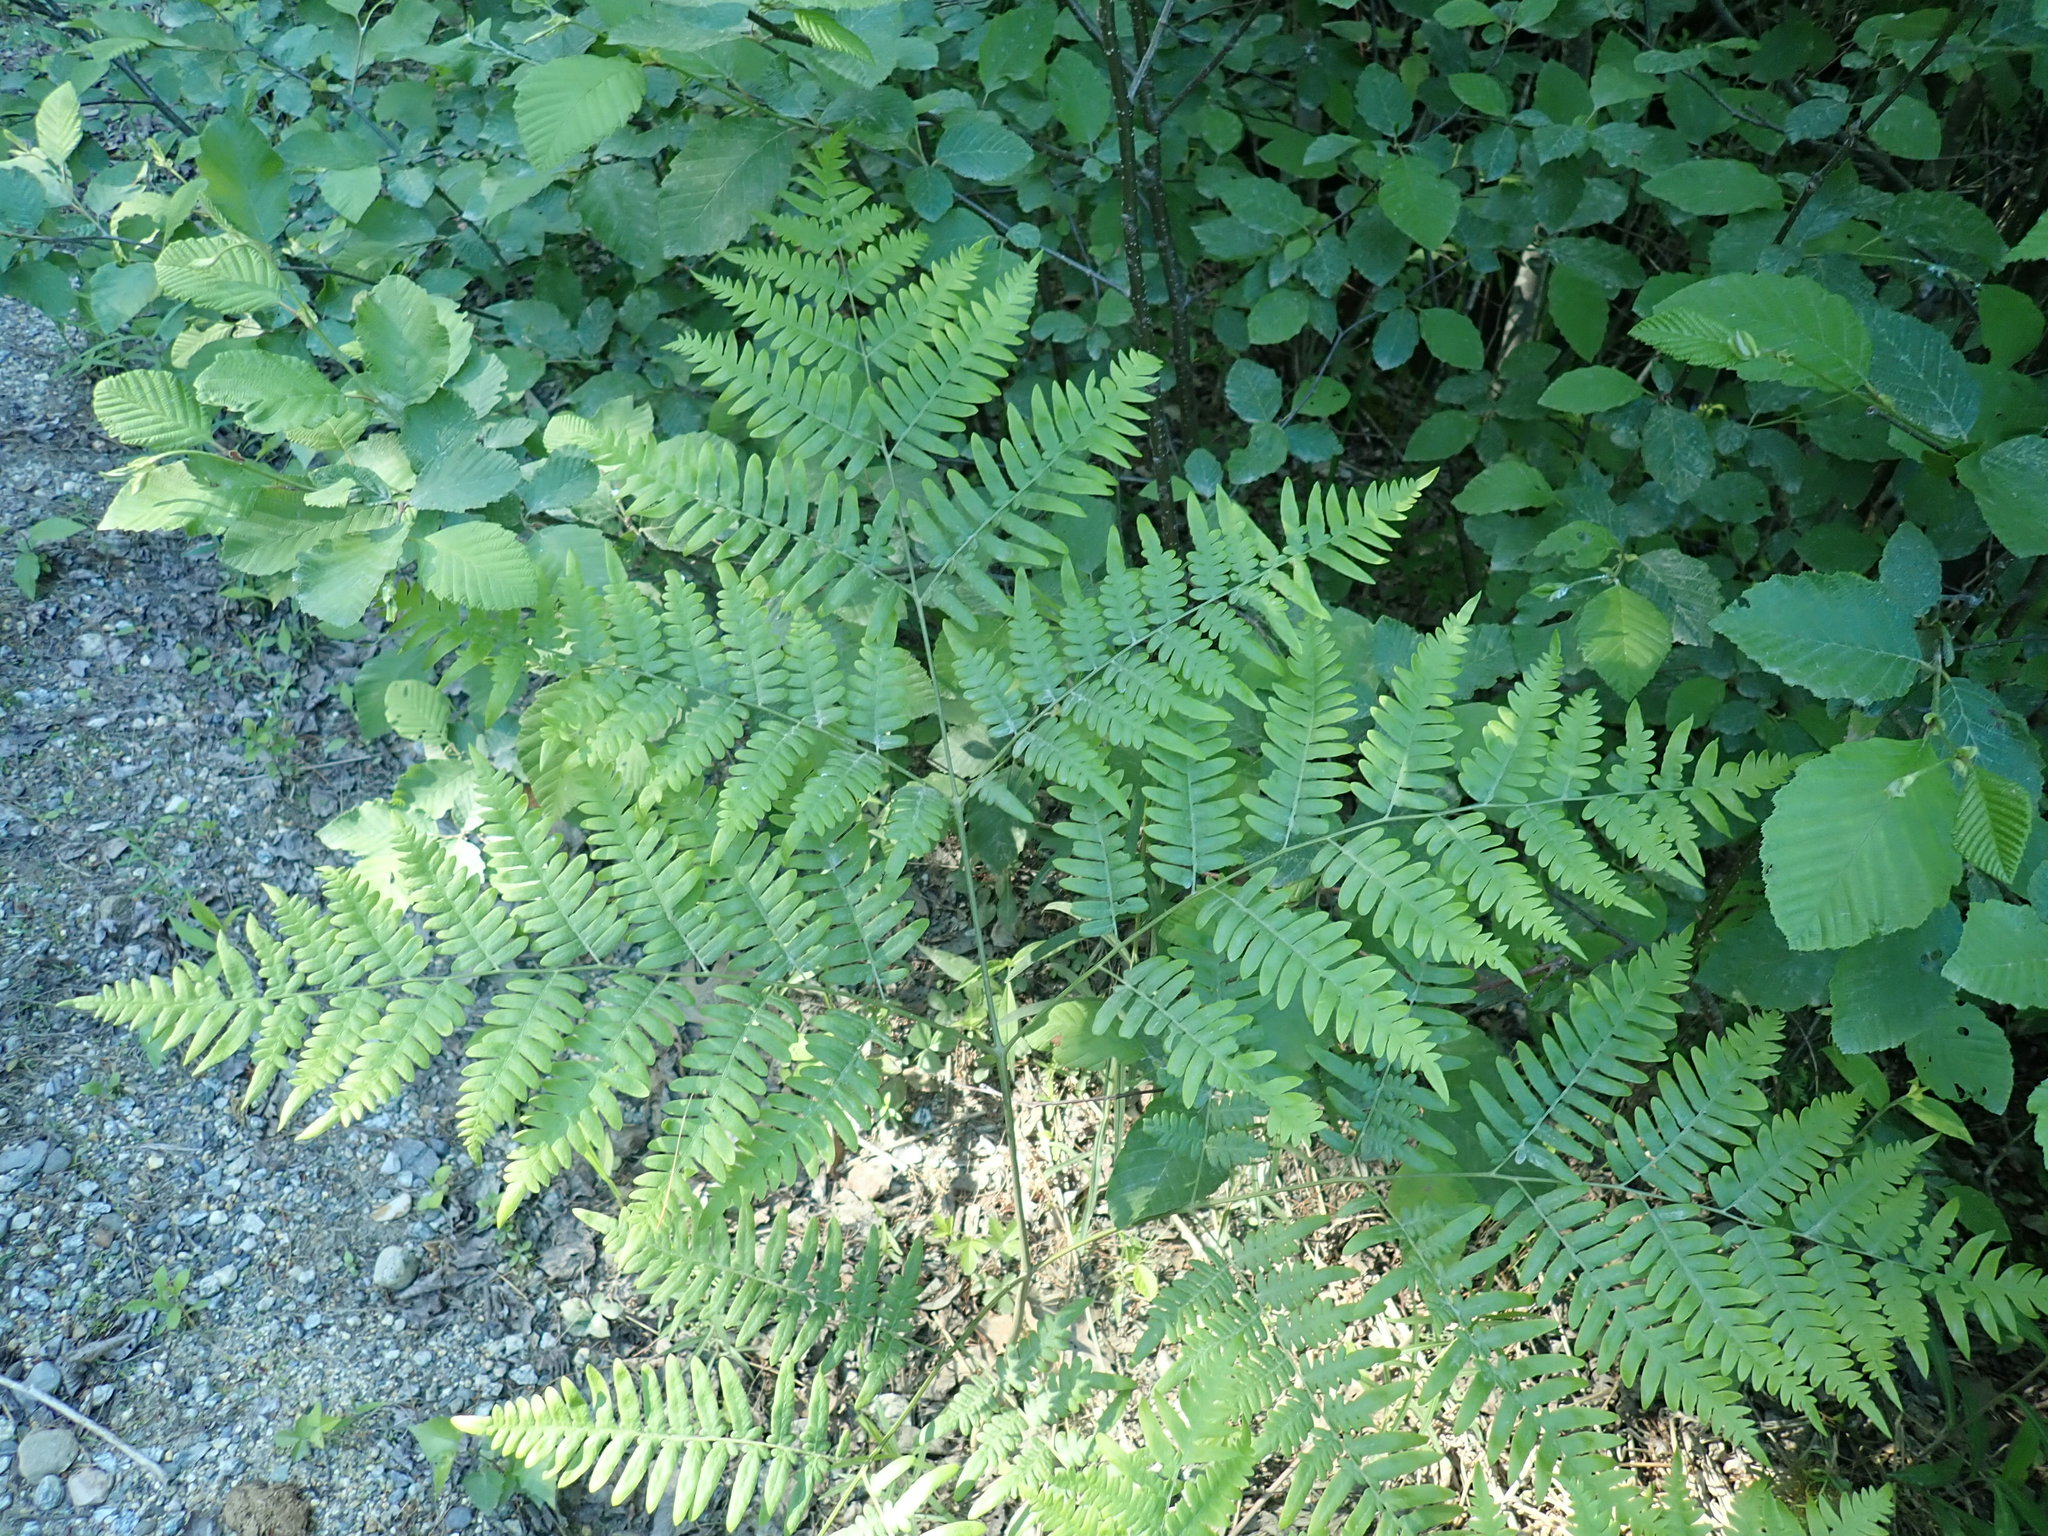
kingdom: Plantae
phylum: Tracheophyta
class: Polypodiopsida
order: Polypodiales
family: Dennstaedtiaceae
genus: Pteridium
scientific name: Pteridium aquilinum
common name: Bracken
